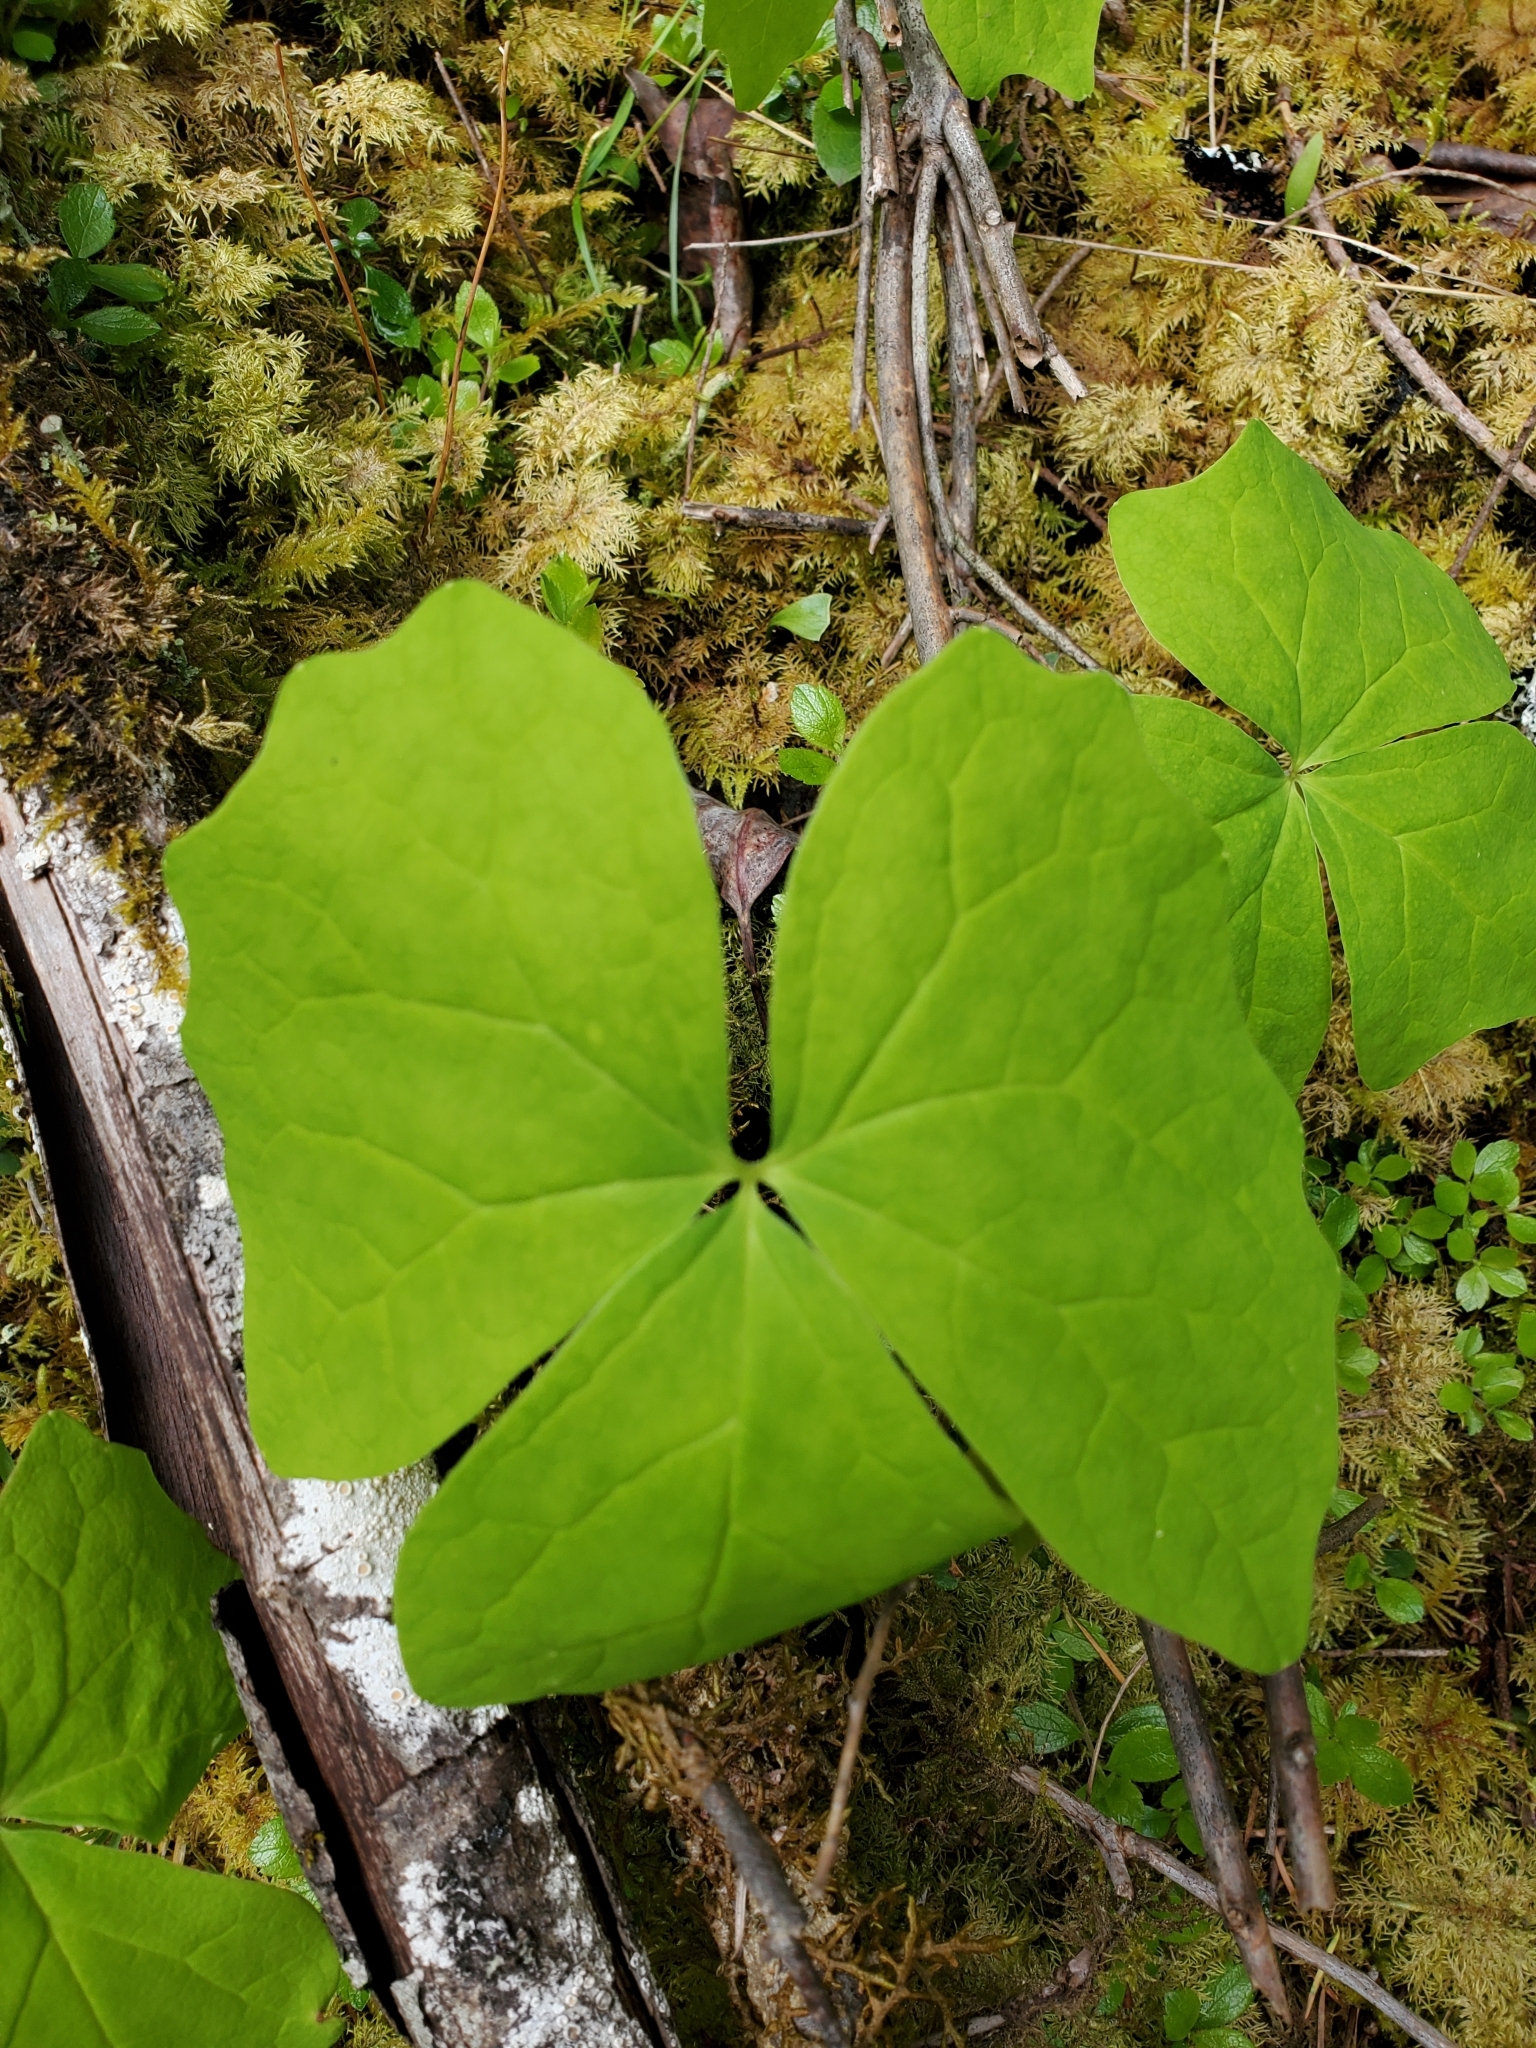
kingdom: Plantae
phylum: Tracheophyta
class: Magnoliopsida
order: Ranunculales
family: Berberidaceae
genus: Achlys
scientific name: Achlys triphylla
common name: Vanilla-leaf
